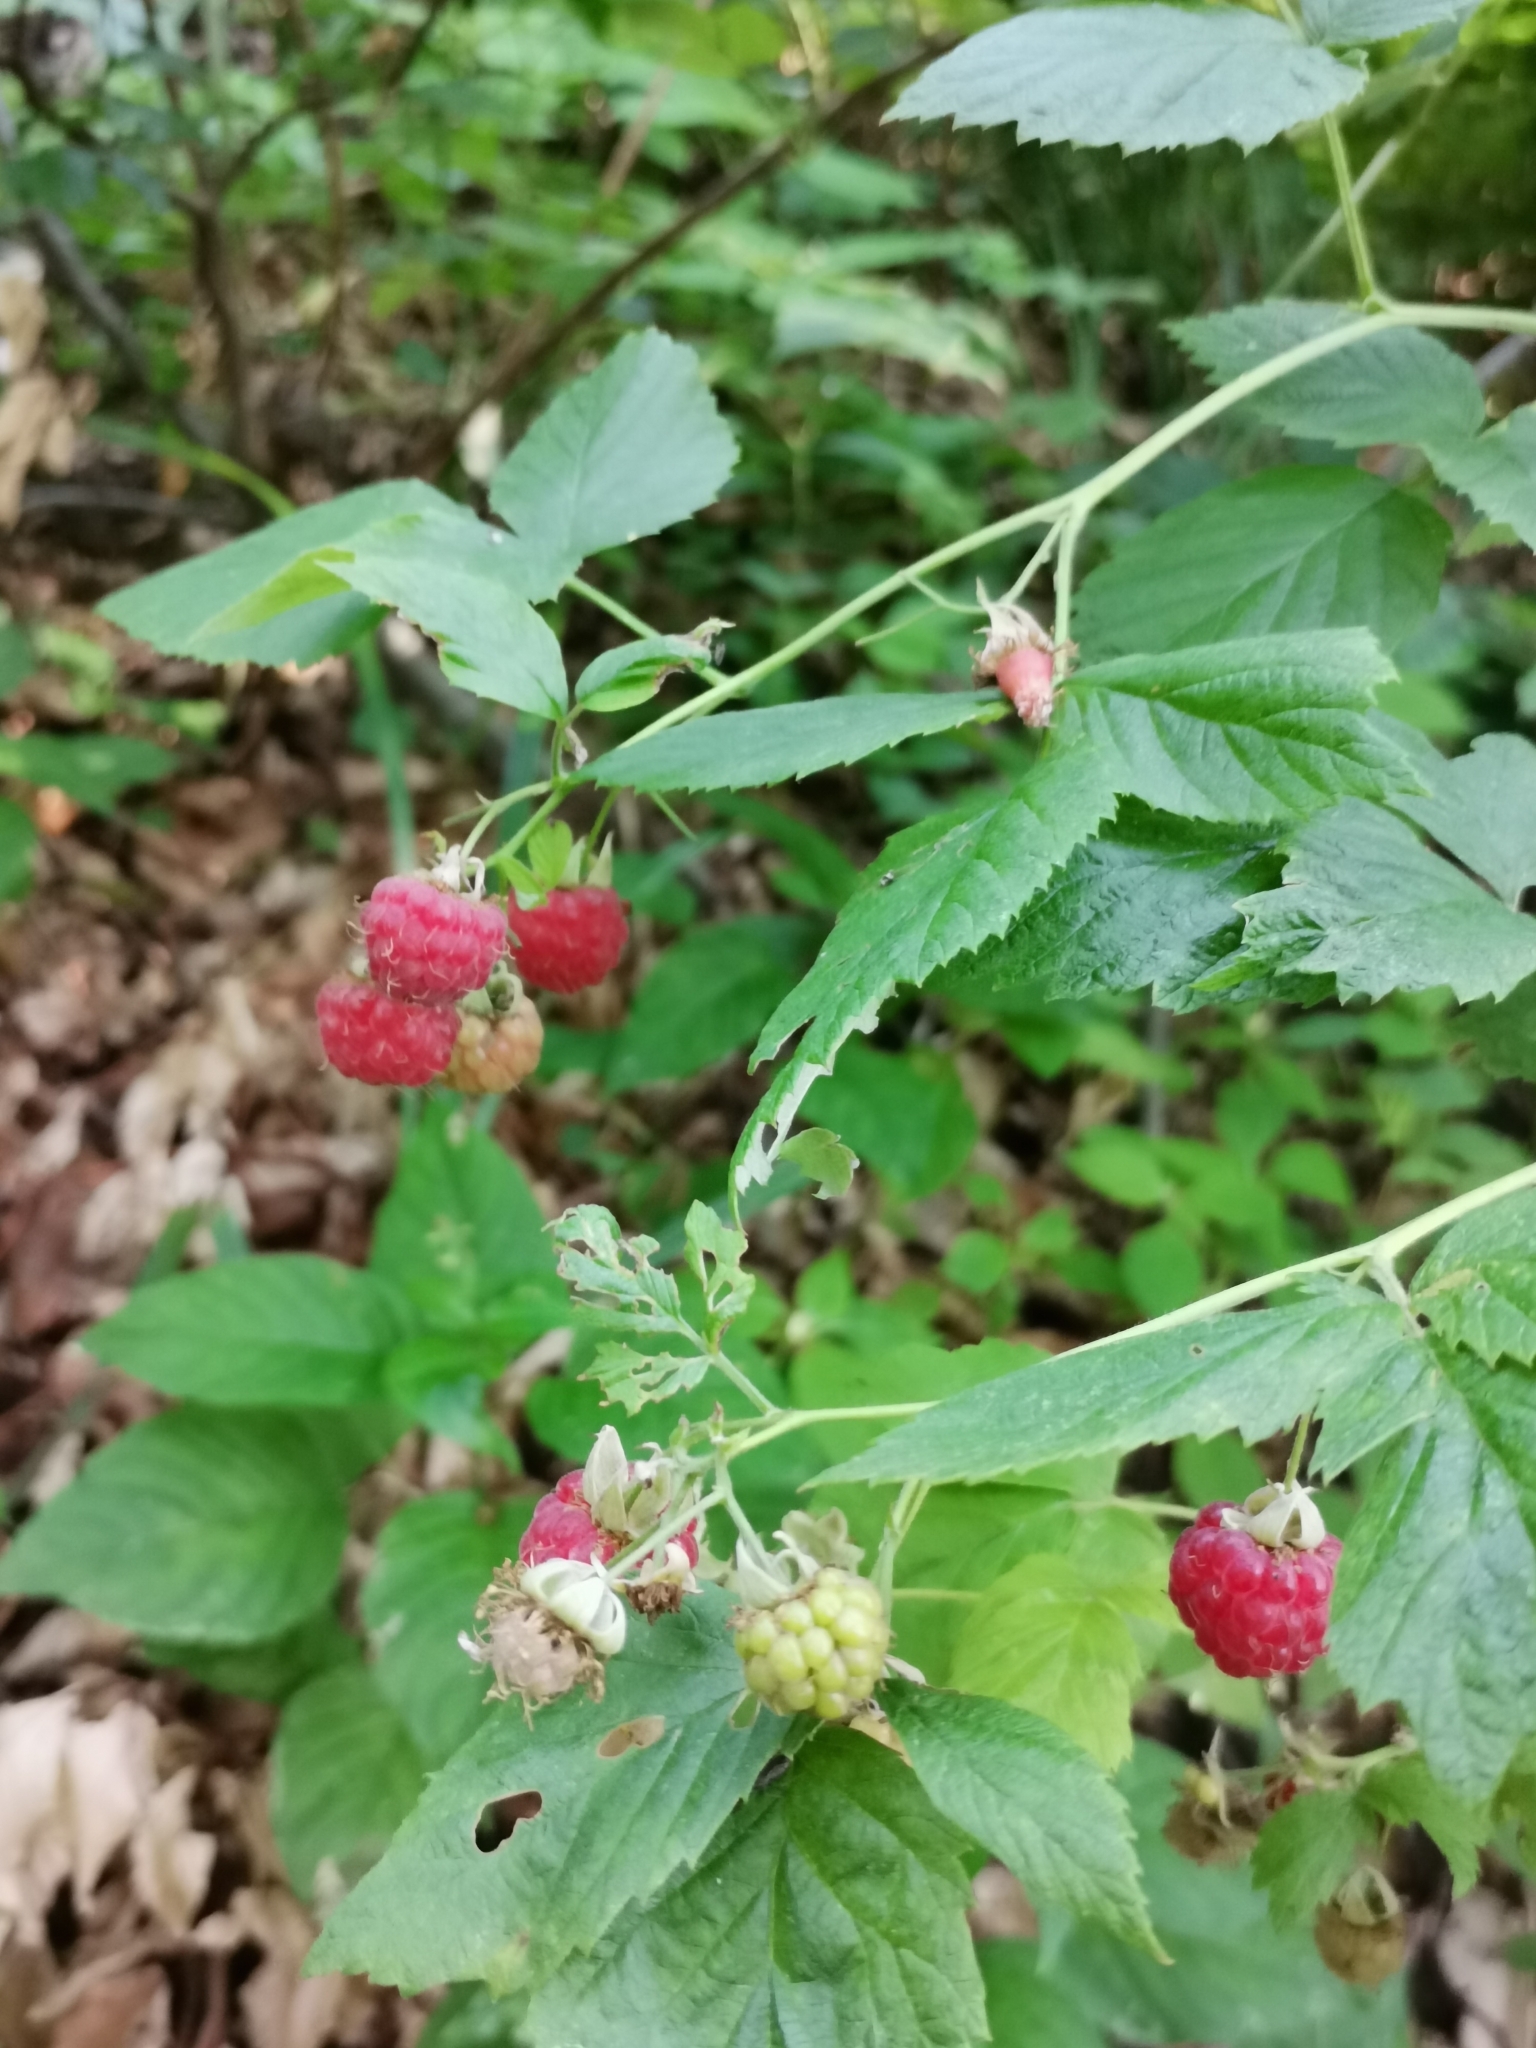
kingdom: Plantae
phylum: Tracheophyta
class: Magnoliopsida
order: Rosales
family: Rosaceae
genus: Rubus
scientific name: Rubus idaeus
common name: Raspberry
